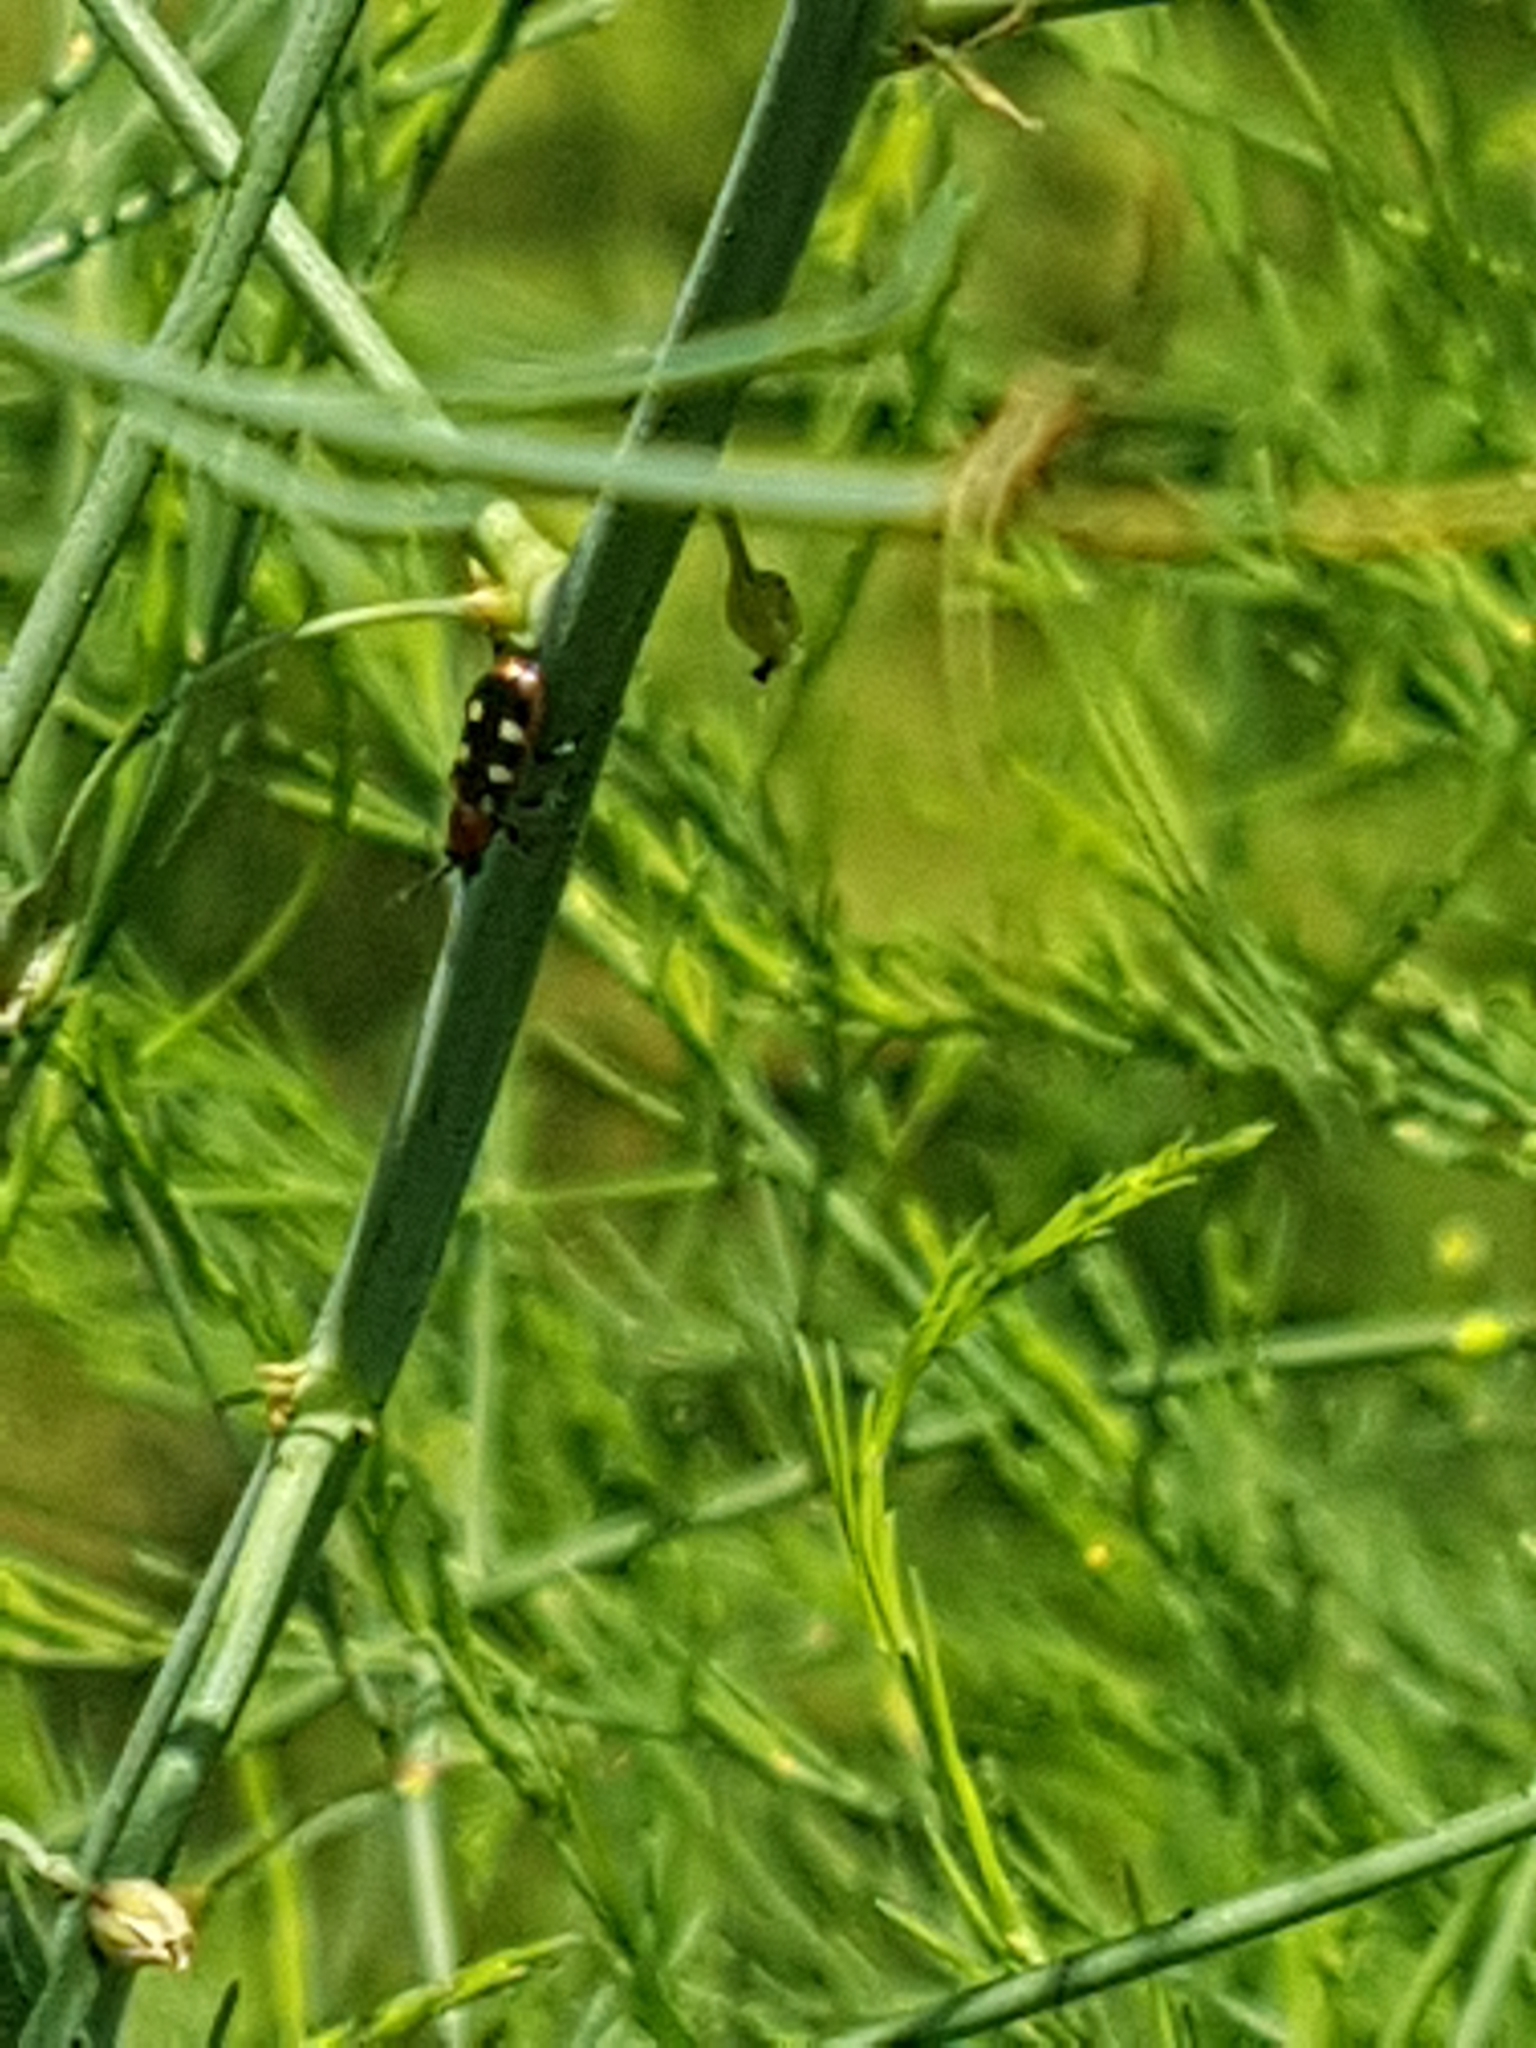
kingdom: Animalia
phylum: Arthropoda
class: Insecta
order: Coleoptera
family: Chrysomelidae
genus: Crioceris
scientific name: Crioceris asparagi
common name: Asparagus beetle
